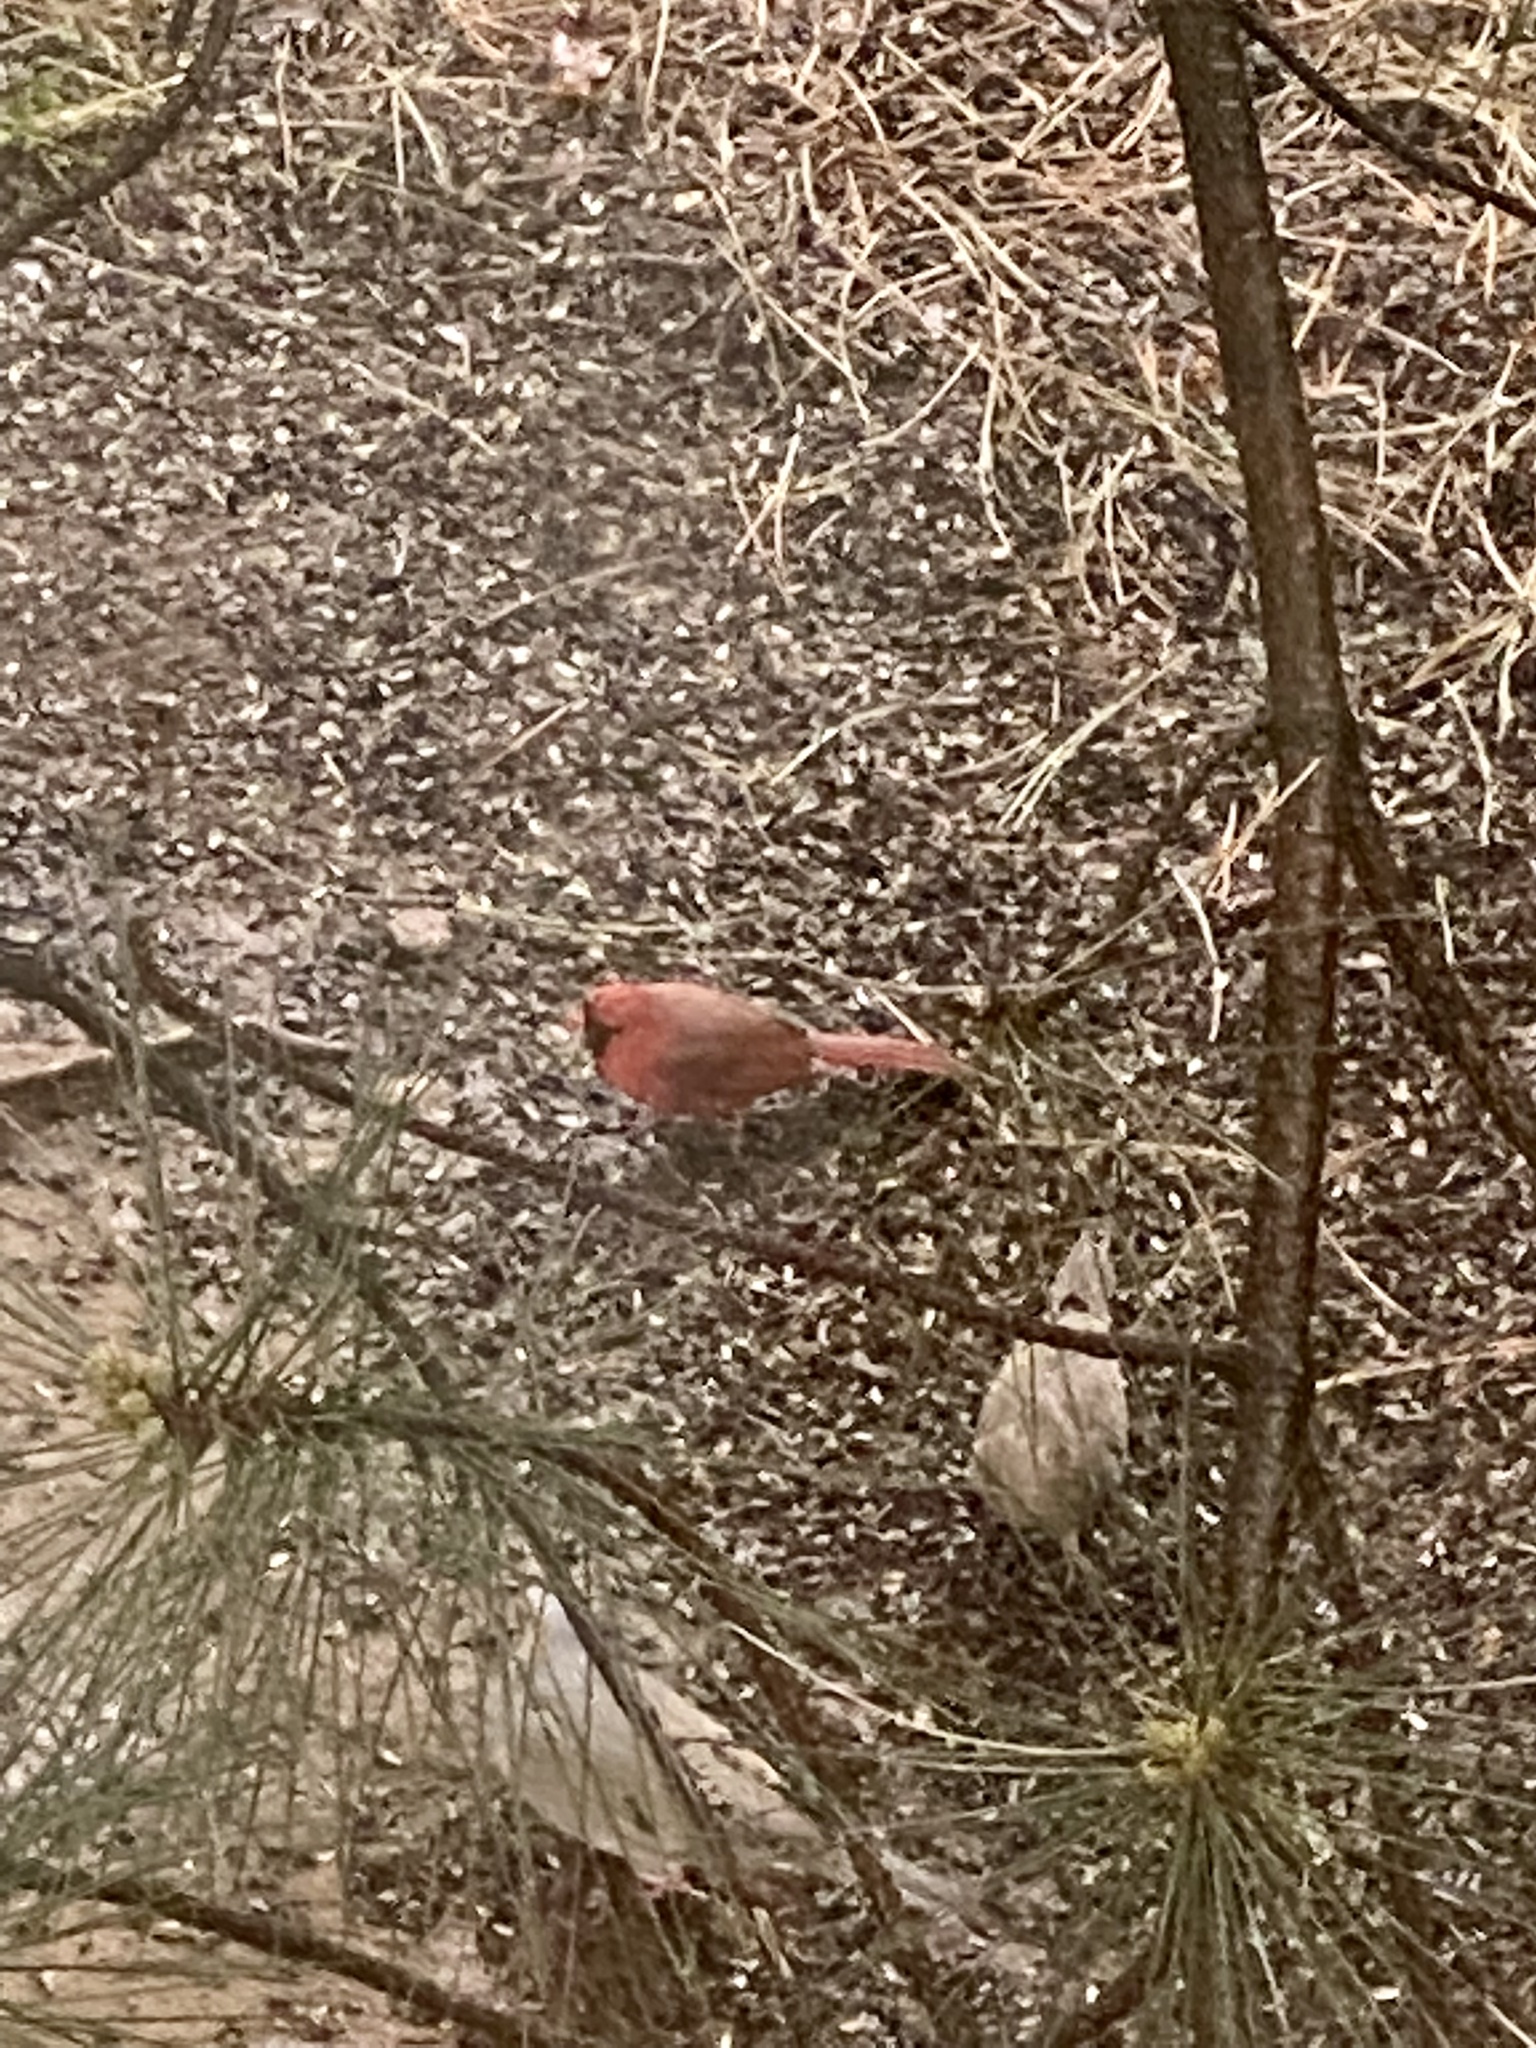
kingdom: Animalia
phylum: Chordata
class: Aves
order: Passeriformes
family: Cardinalidae
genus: Cardinalis
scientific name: Cardinalis cardinalis
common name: Northern cardinal
